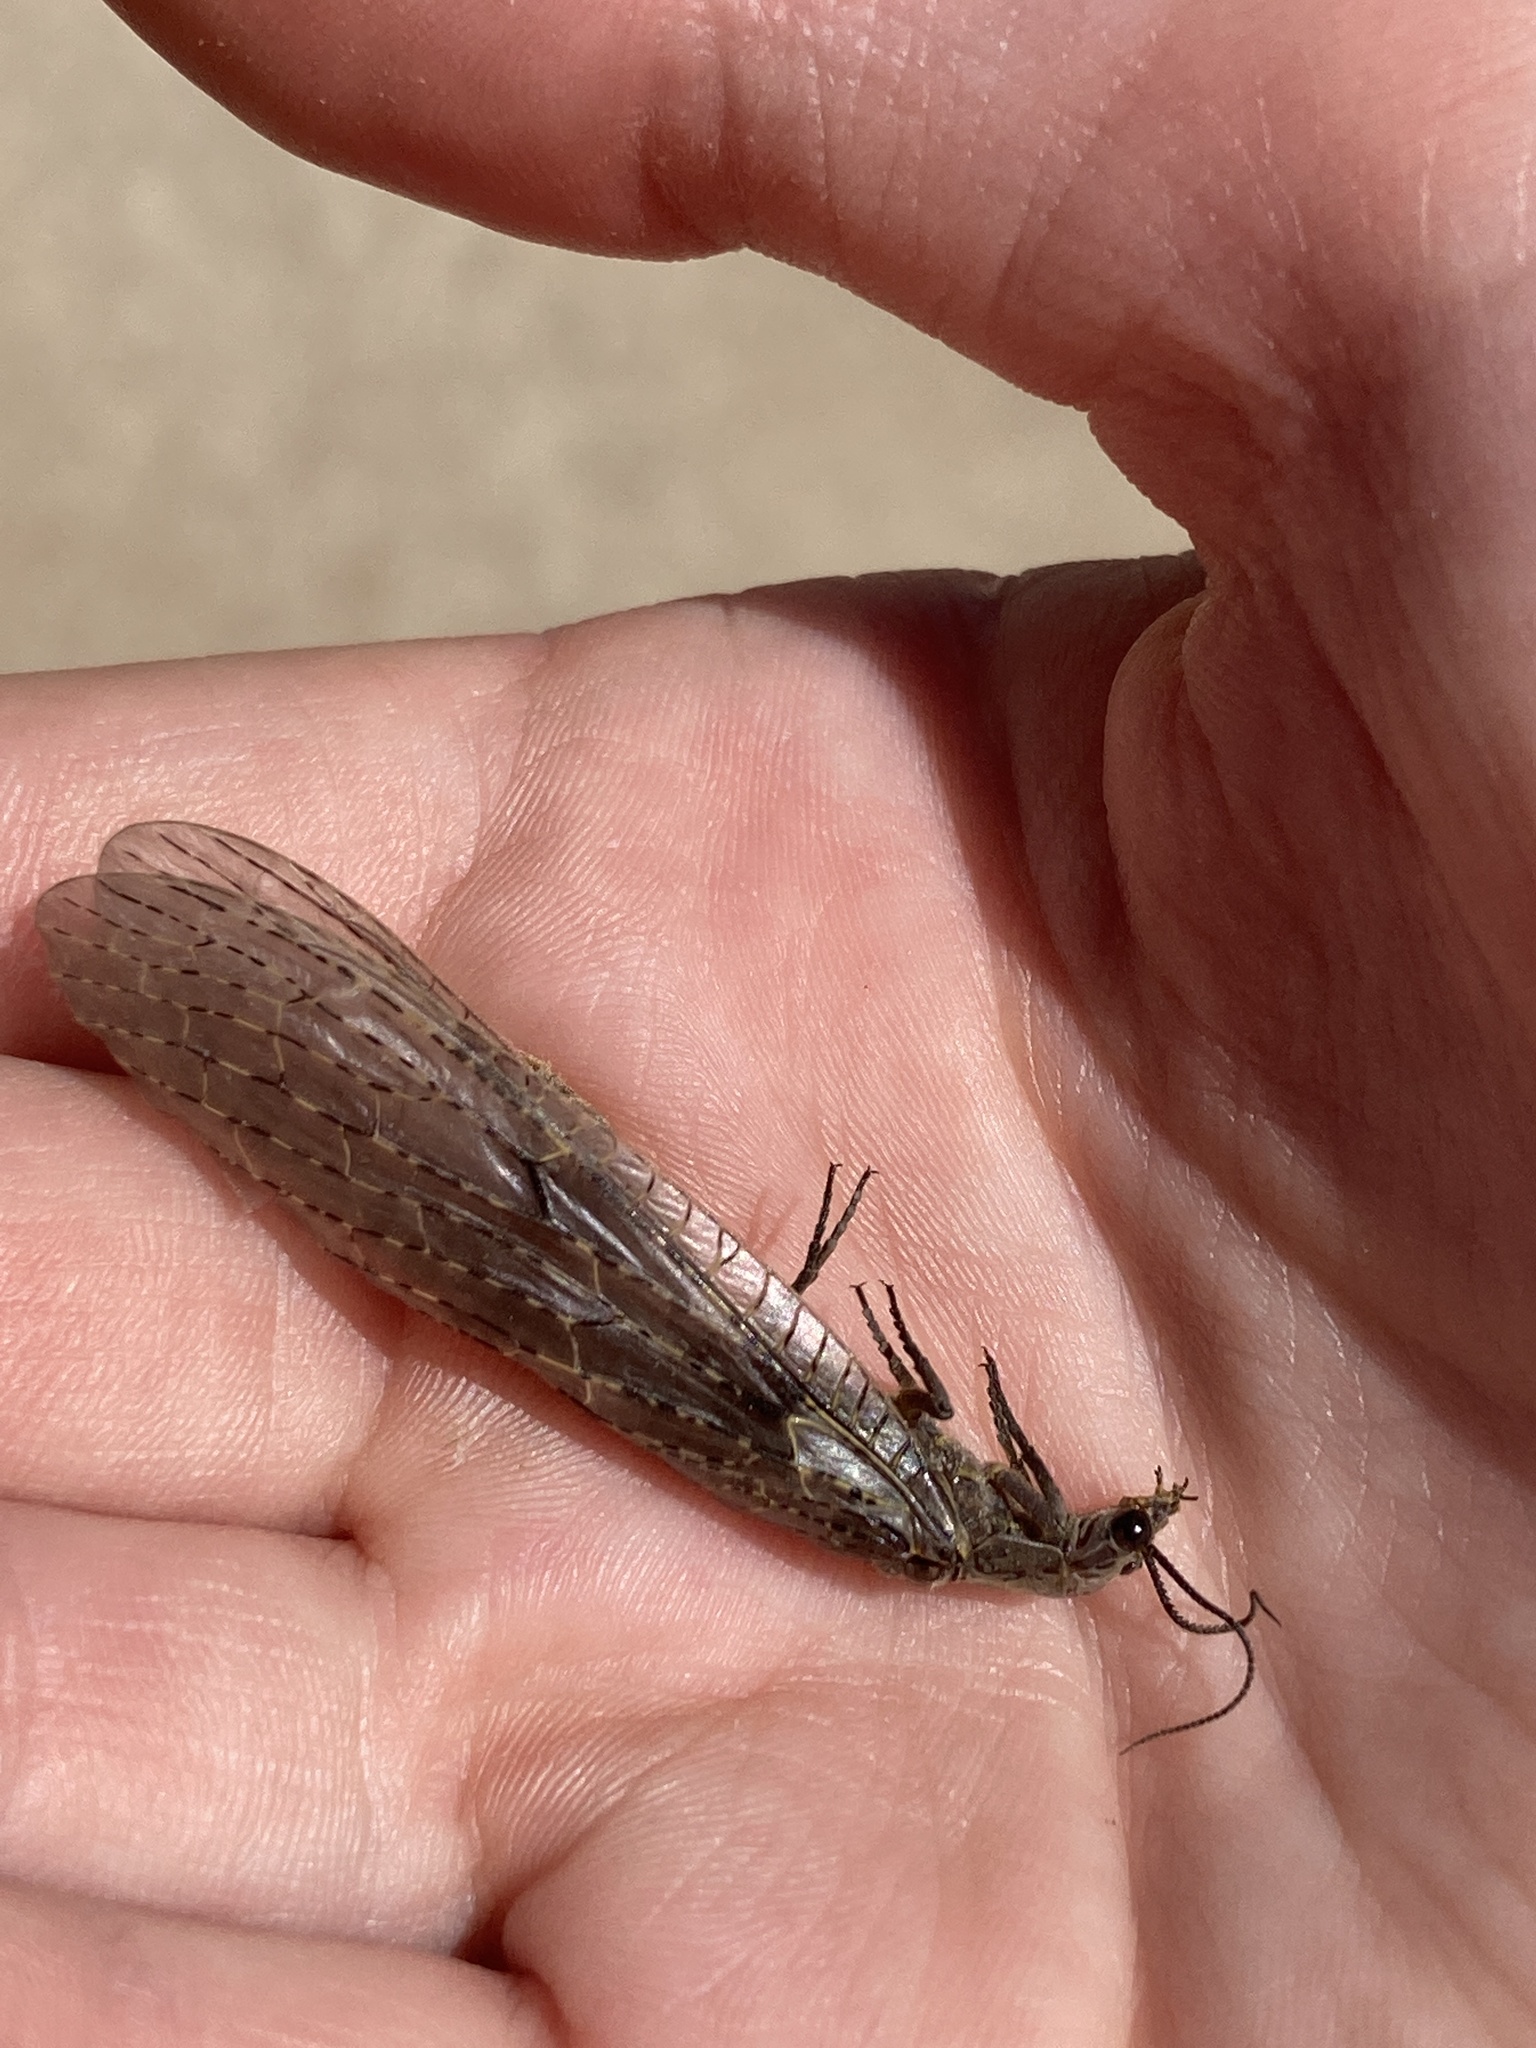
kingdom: Animalia
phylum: Arthropoda
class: Insecta
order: Megaloptera
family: Corydalidae
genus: Chauliodes
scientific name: Chauliodes rastricornis
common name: Spring fishfly
